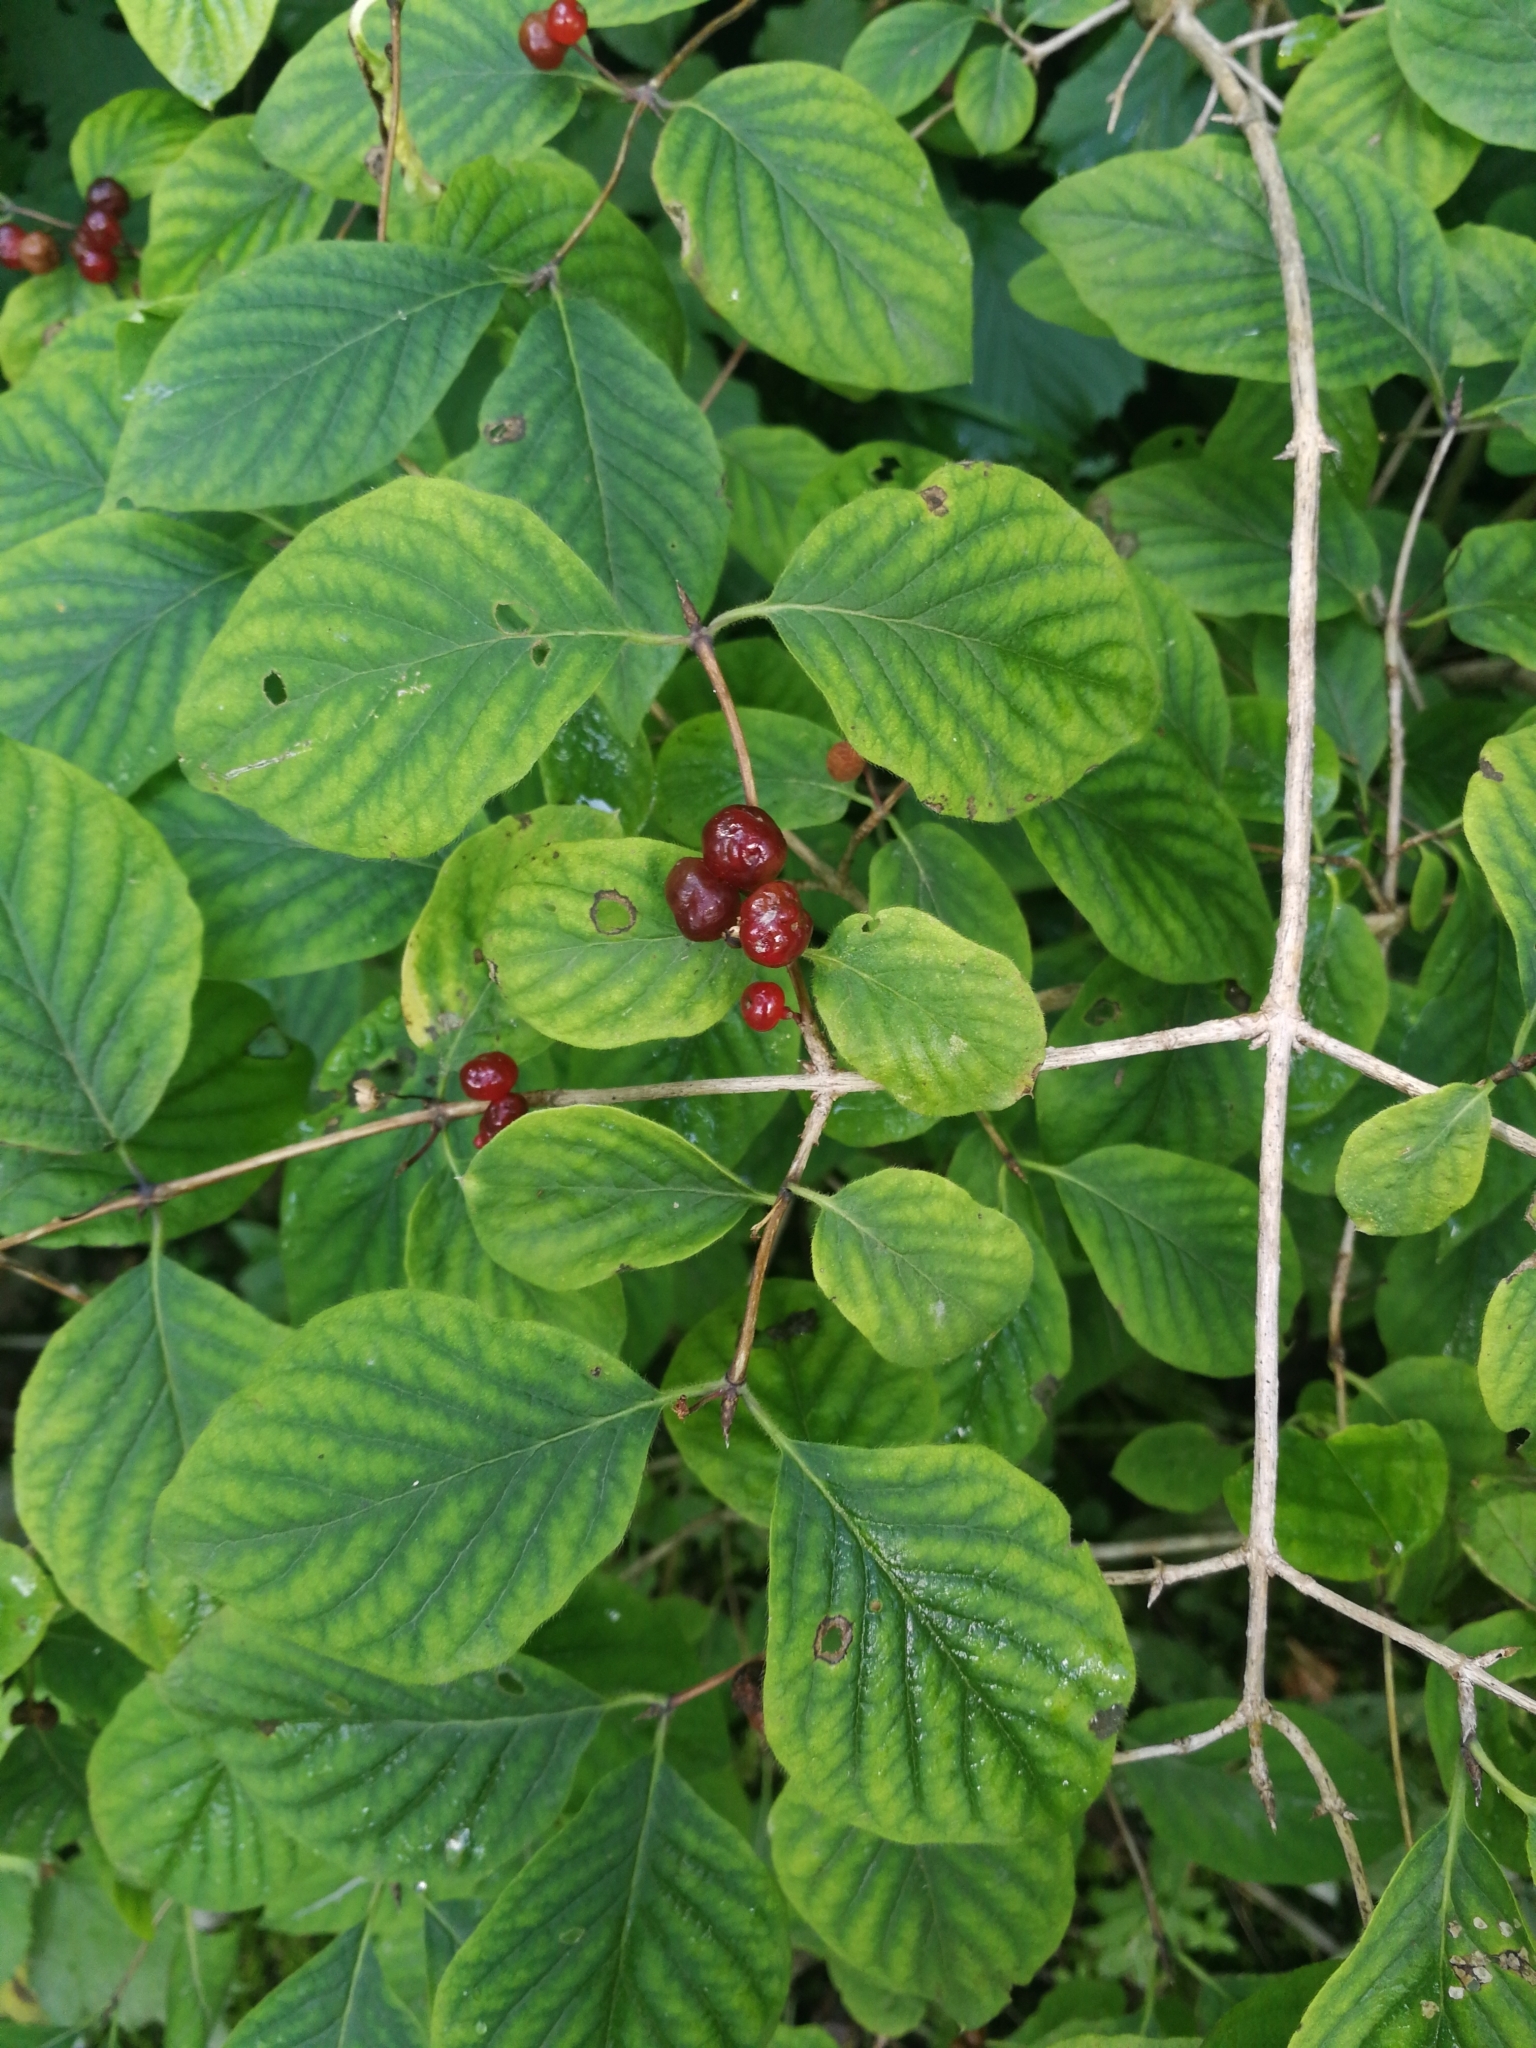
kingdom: Plantae
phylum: Tracheophyta
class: Magnoliopsida
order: Dipsacales
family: Caprifoliaceae
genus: Lonicera
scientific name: Lonicera xylosteum
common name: Fly honeysuckle
